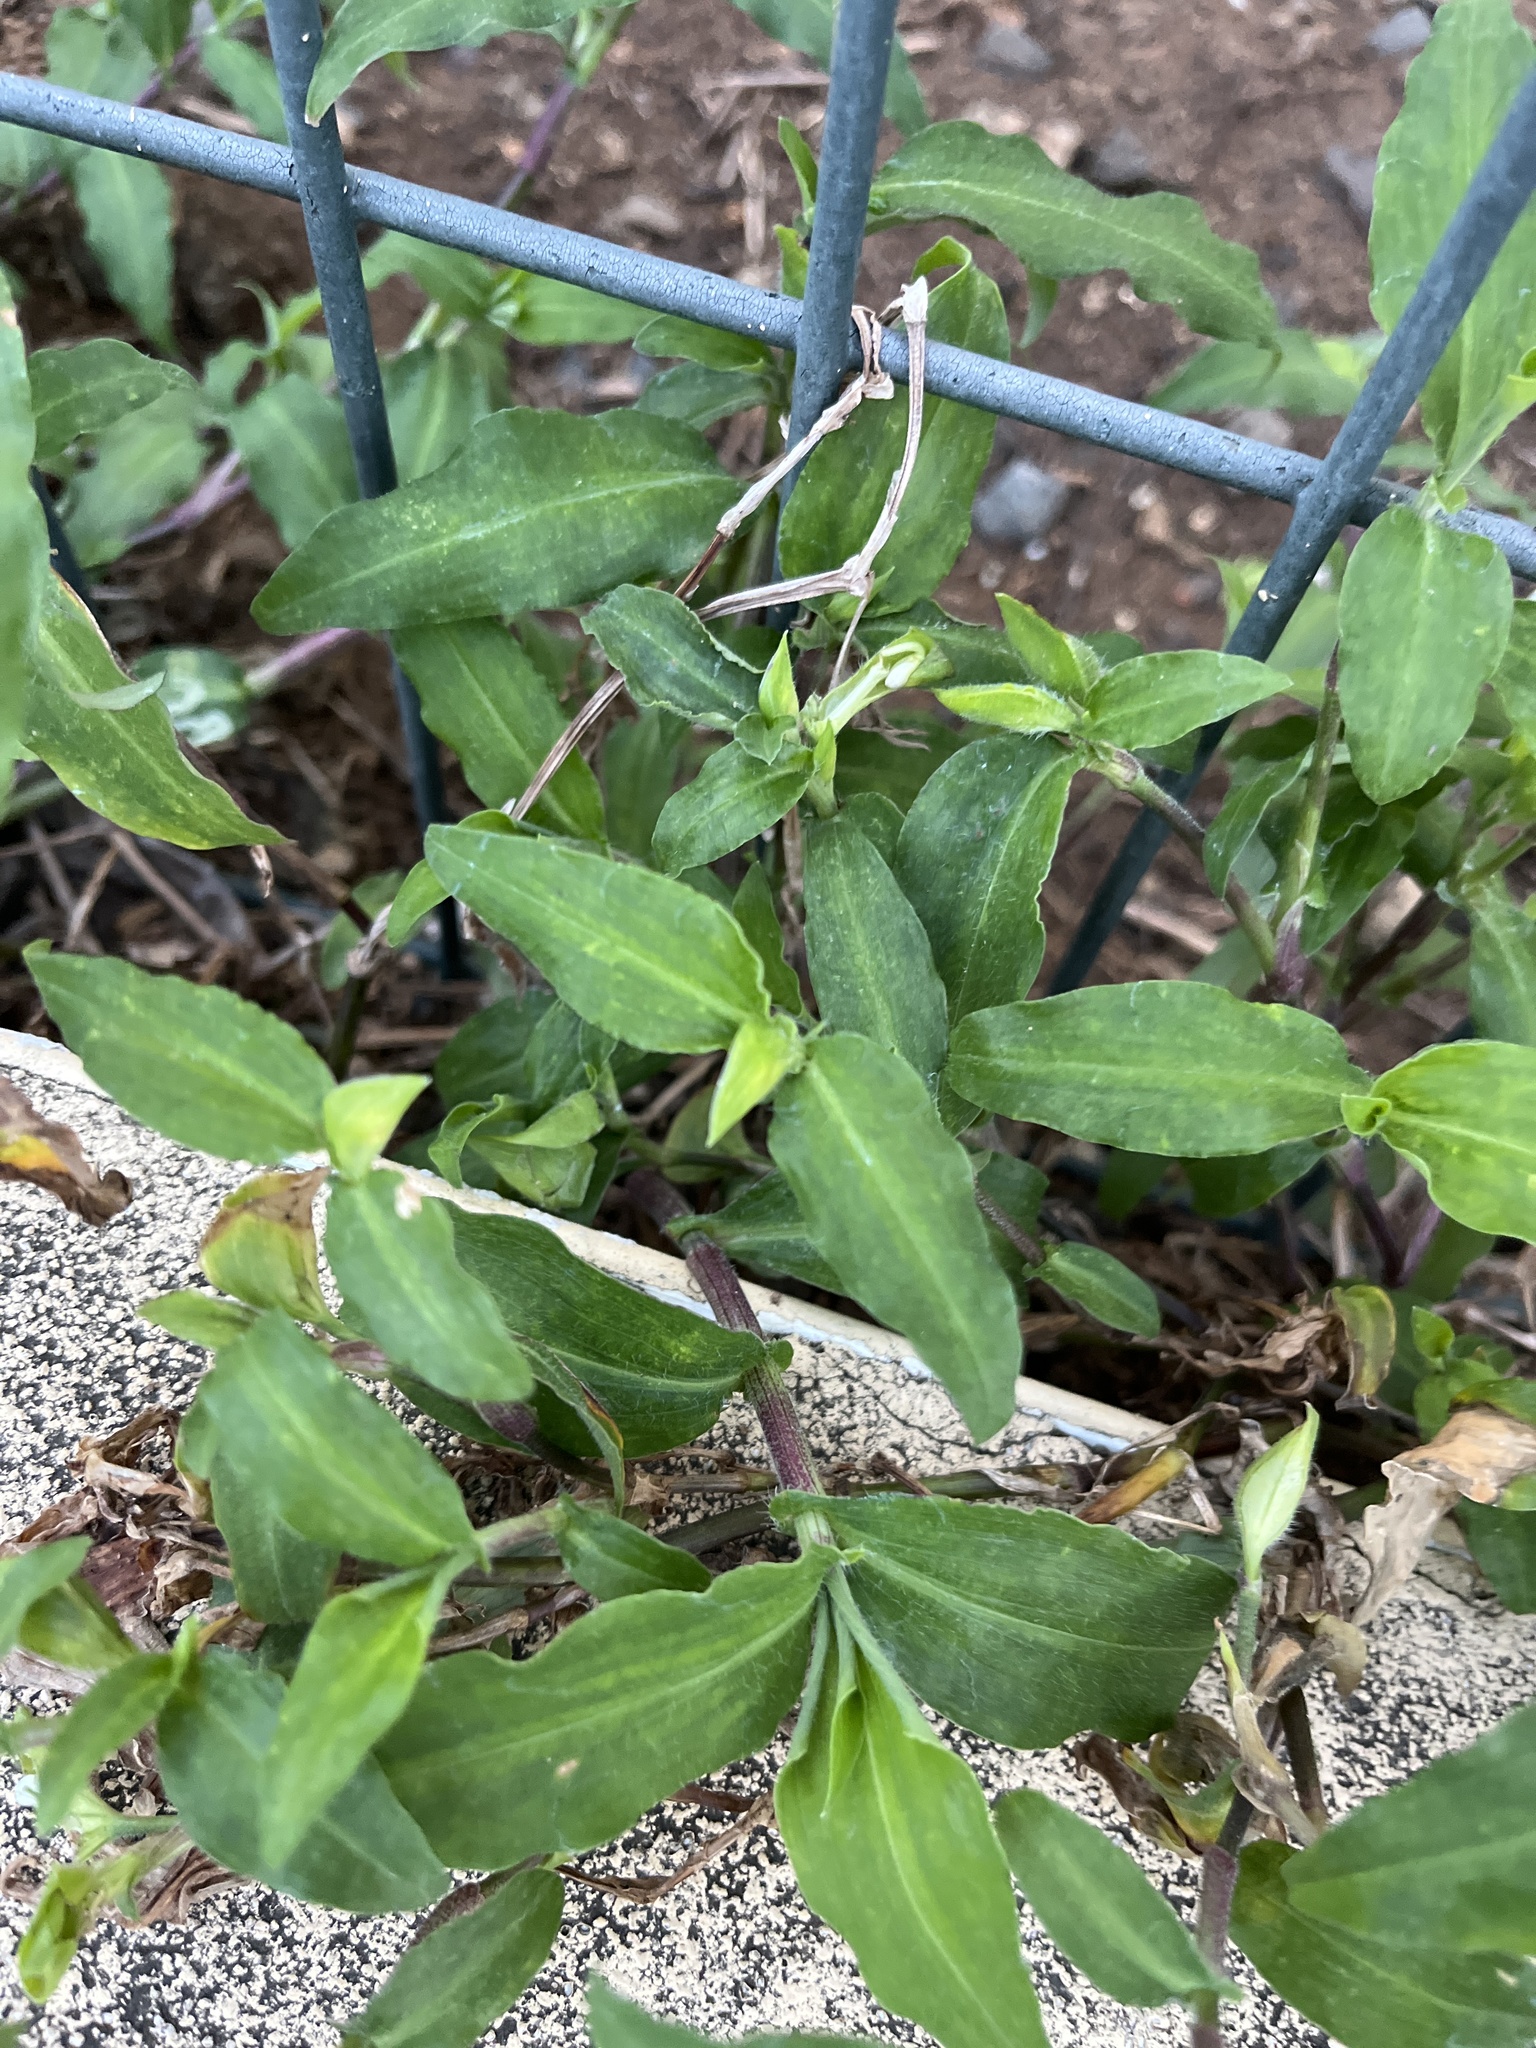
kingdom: Plantae
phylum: Tracheophyta
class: Liliopsida
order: Commelinales
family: Commelinaceae
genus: Commelina
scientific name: Commelina erecta
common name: Blousel blommetjie
